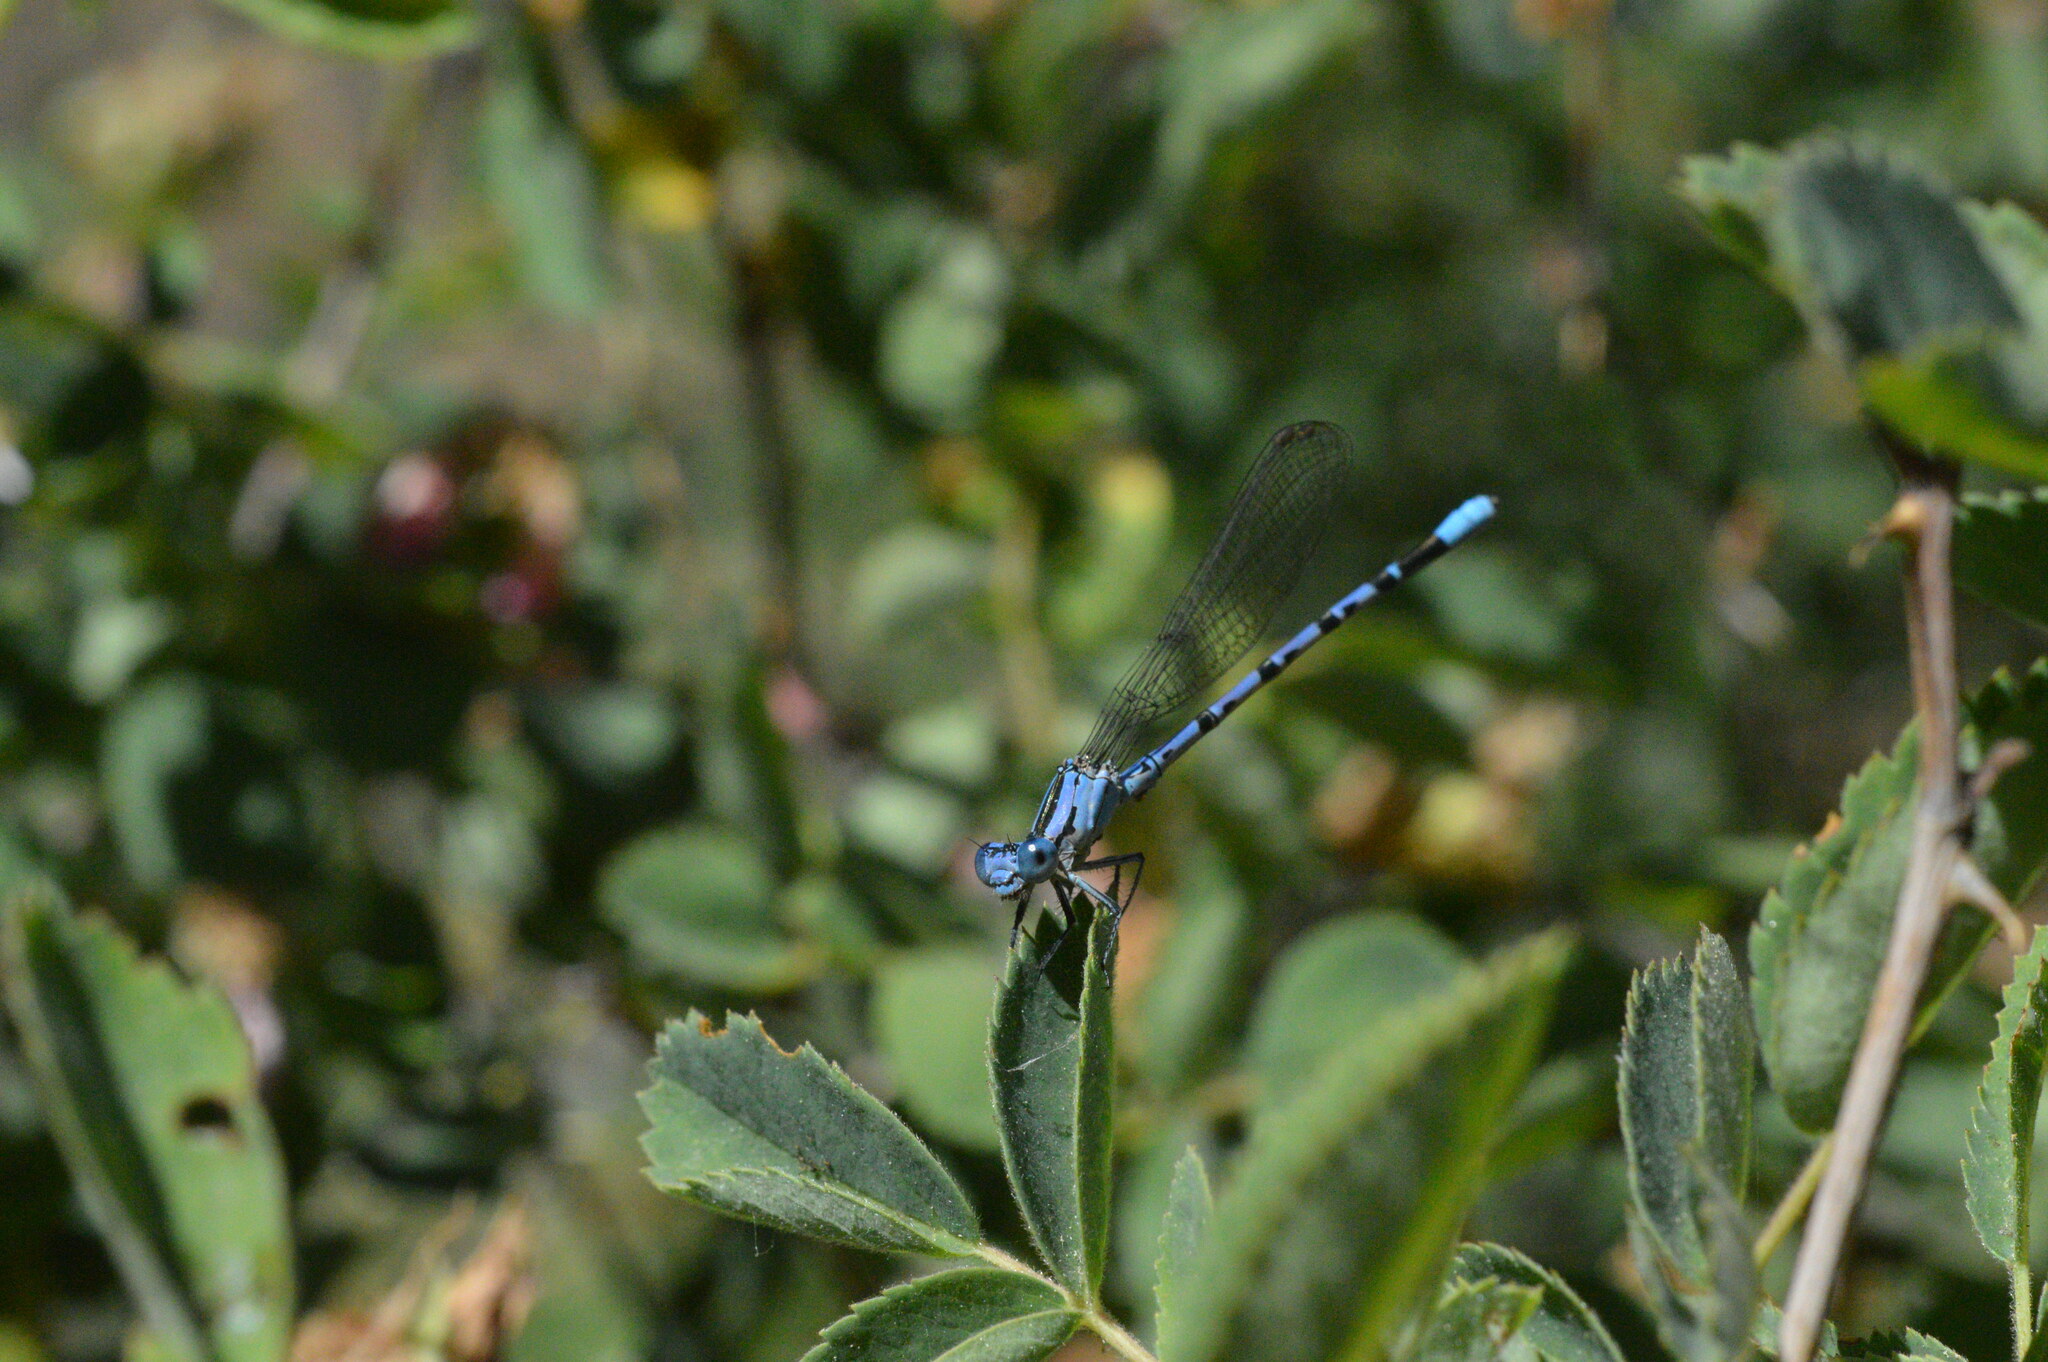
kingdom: Animalia
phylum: Arthropoda
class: Insecta
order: Odonata
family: Coenagrionidae
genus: Argia
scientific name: Argia vivida
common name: Vivid dancer
